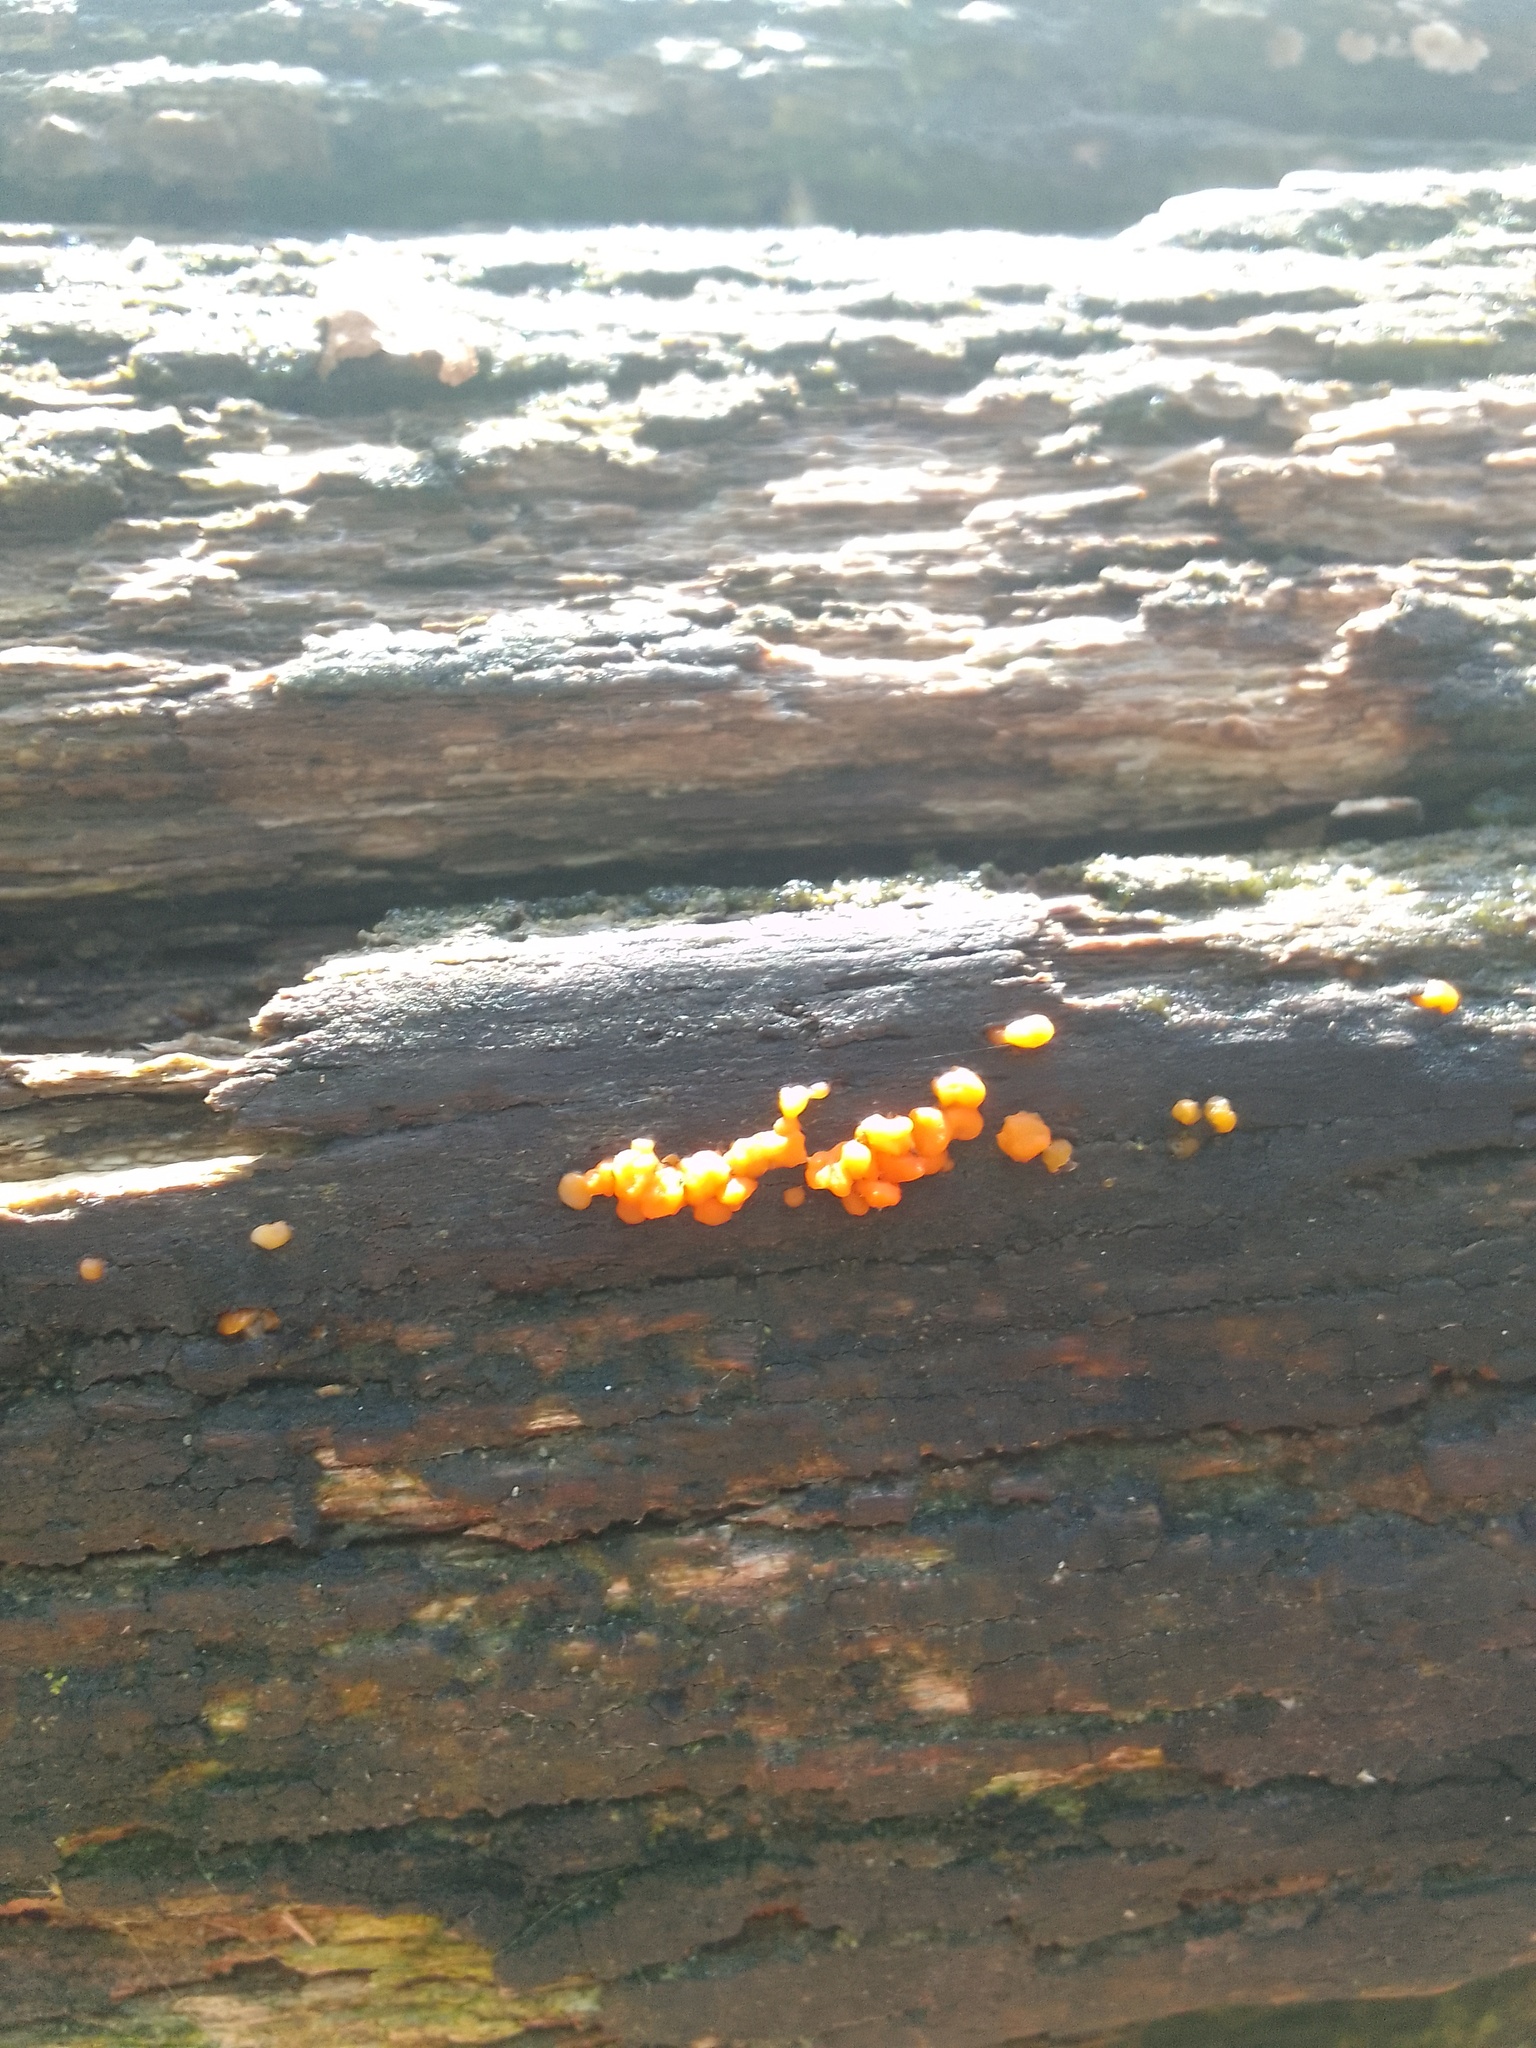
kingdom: Fungi
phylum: Basidiomycota
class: Dacrymycetes
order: Dacrymycetales
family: Dacrymycetaceae
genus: Dacrymyces
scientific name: Dacrymyces stillatus
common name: Common jelly spot
